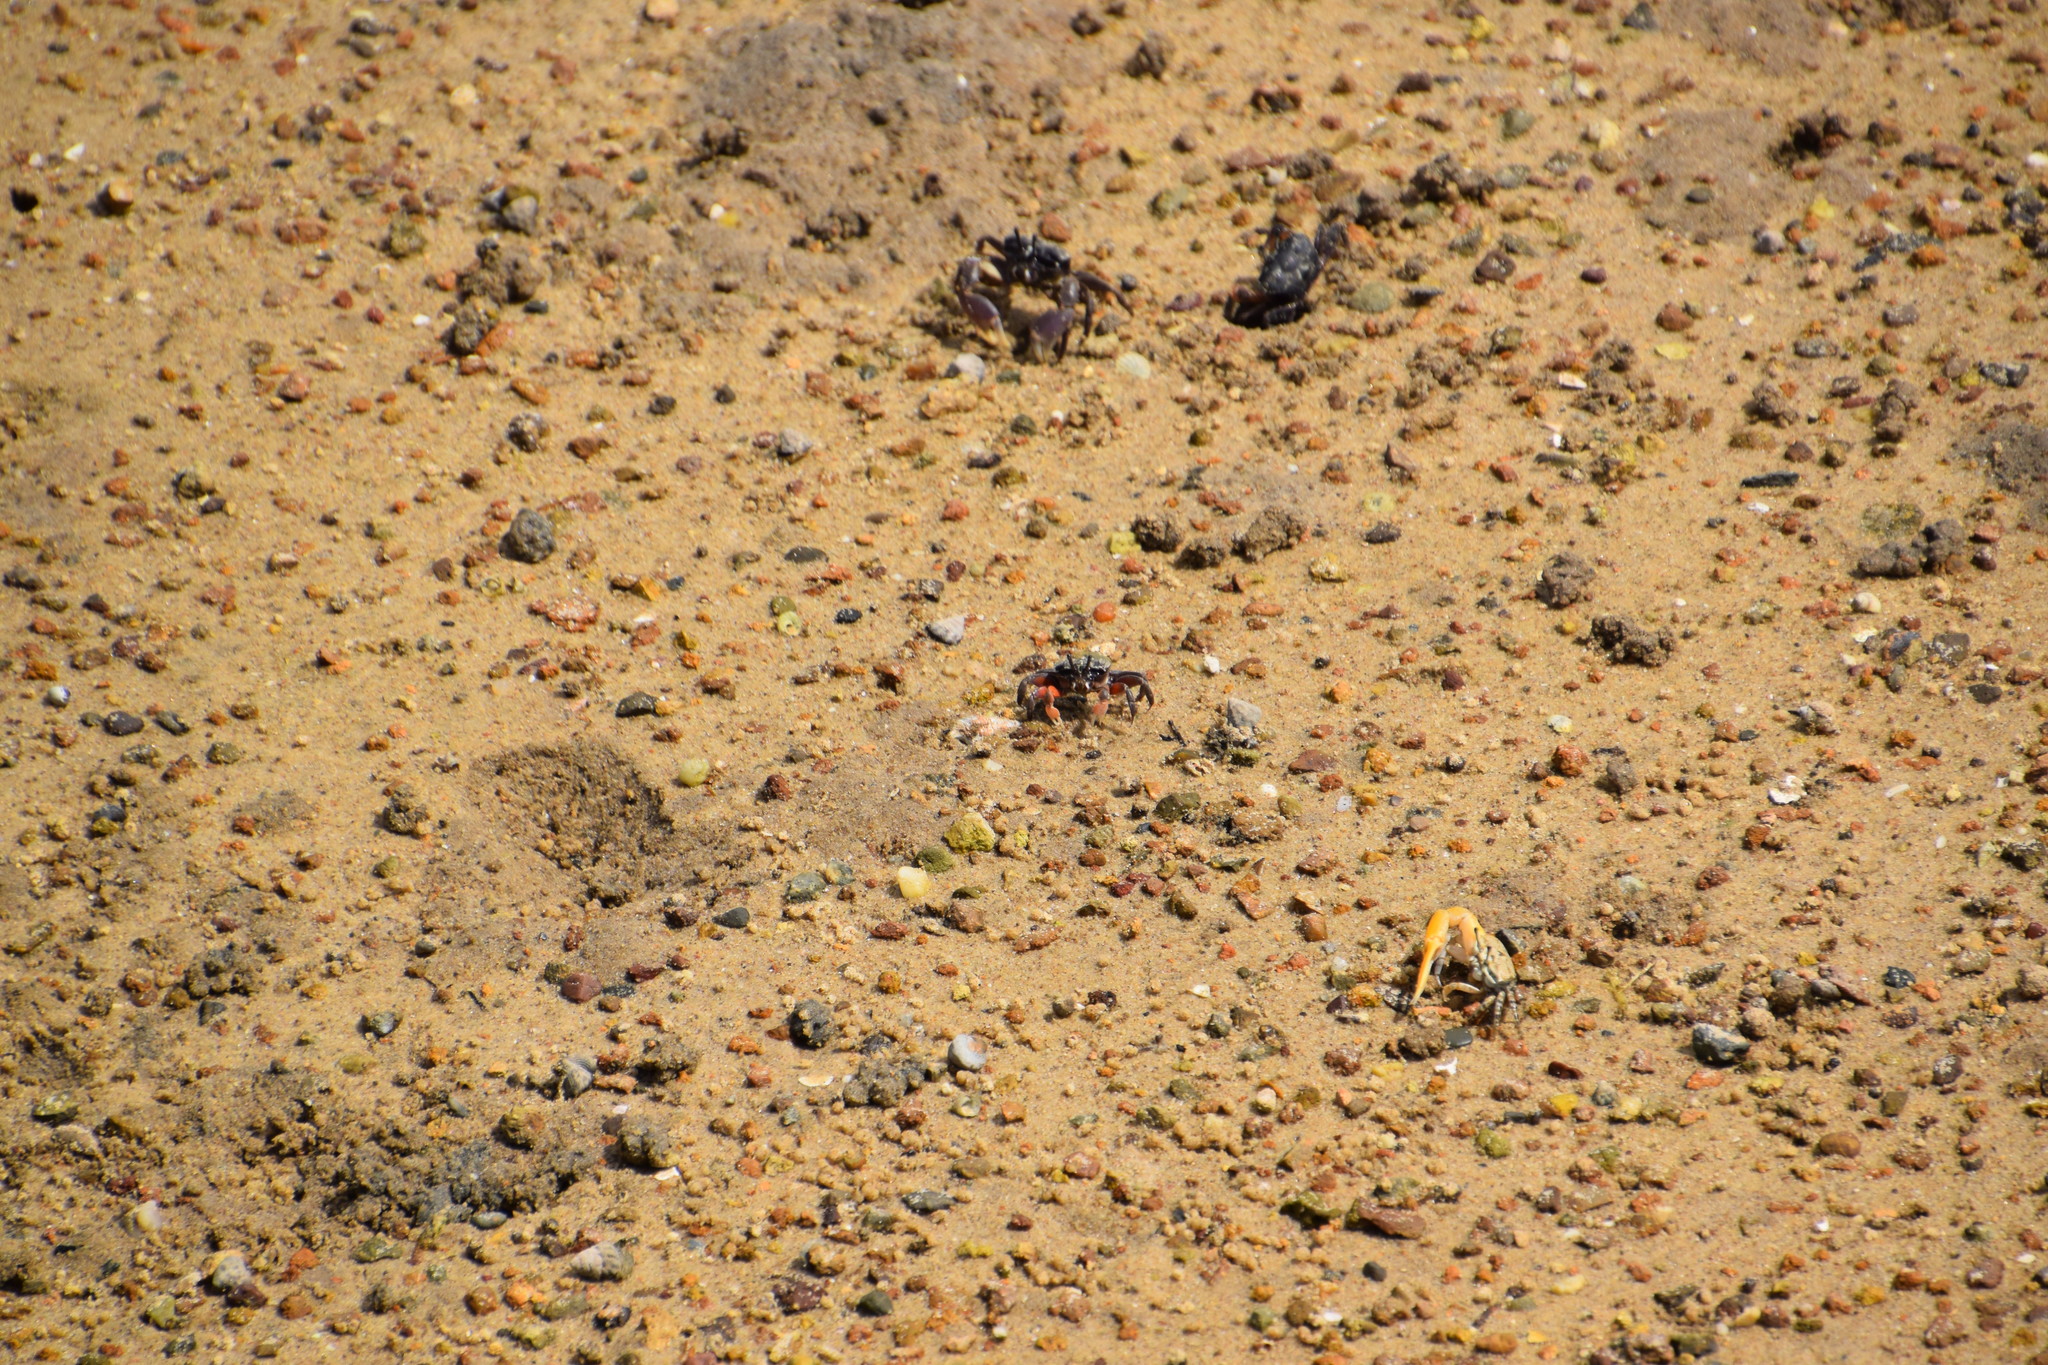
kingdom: Animalia
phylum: Arthropoda
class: Malacostraca
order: Decapoda
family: Heloeciidae
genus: Heloecius
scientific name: Heloecius cordiformis
